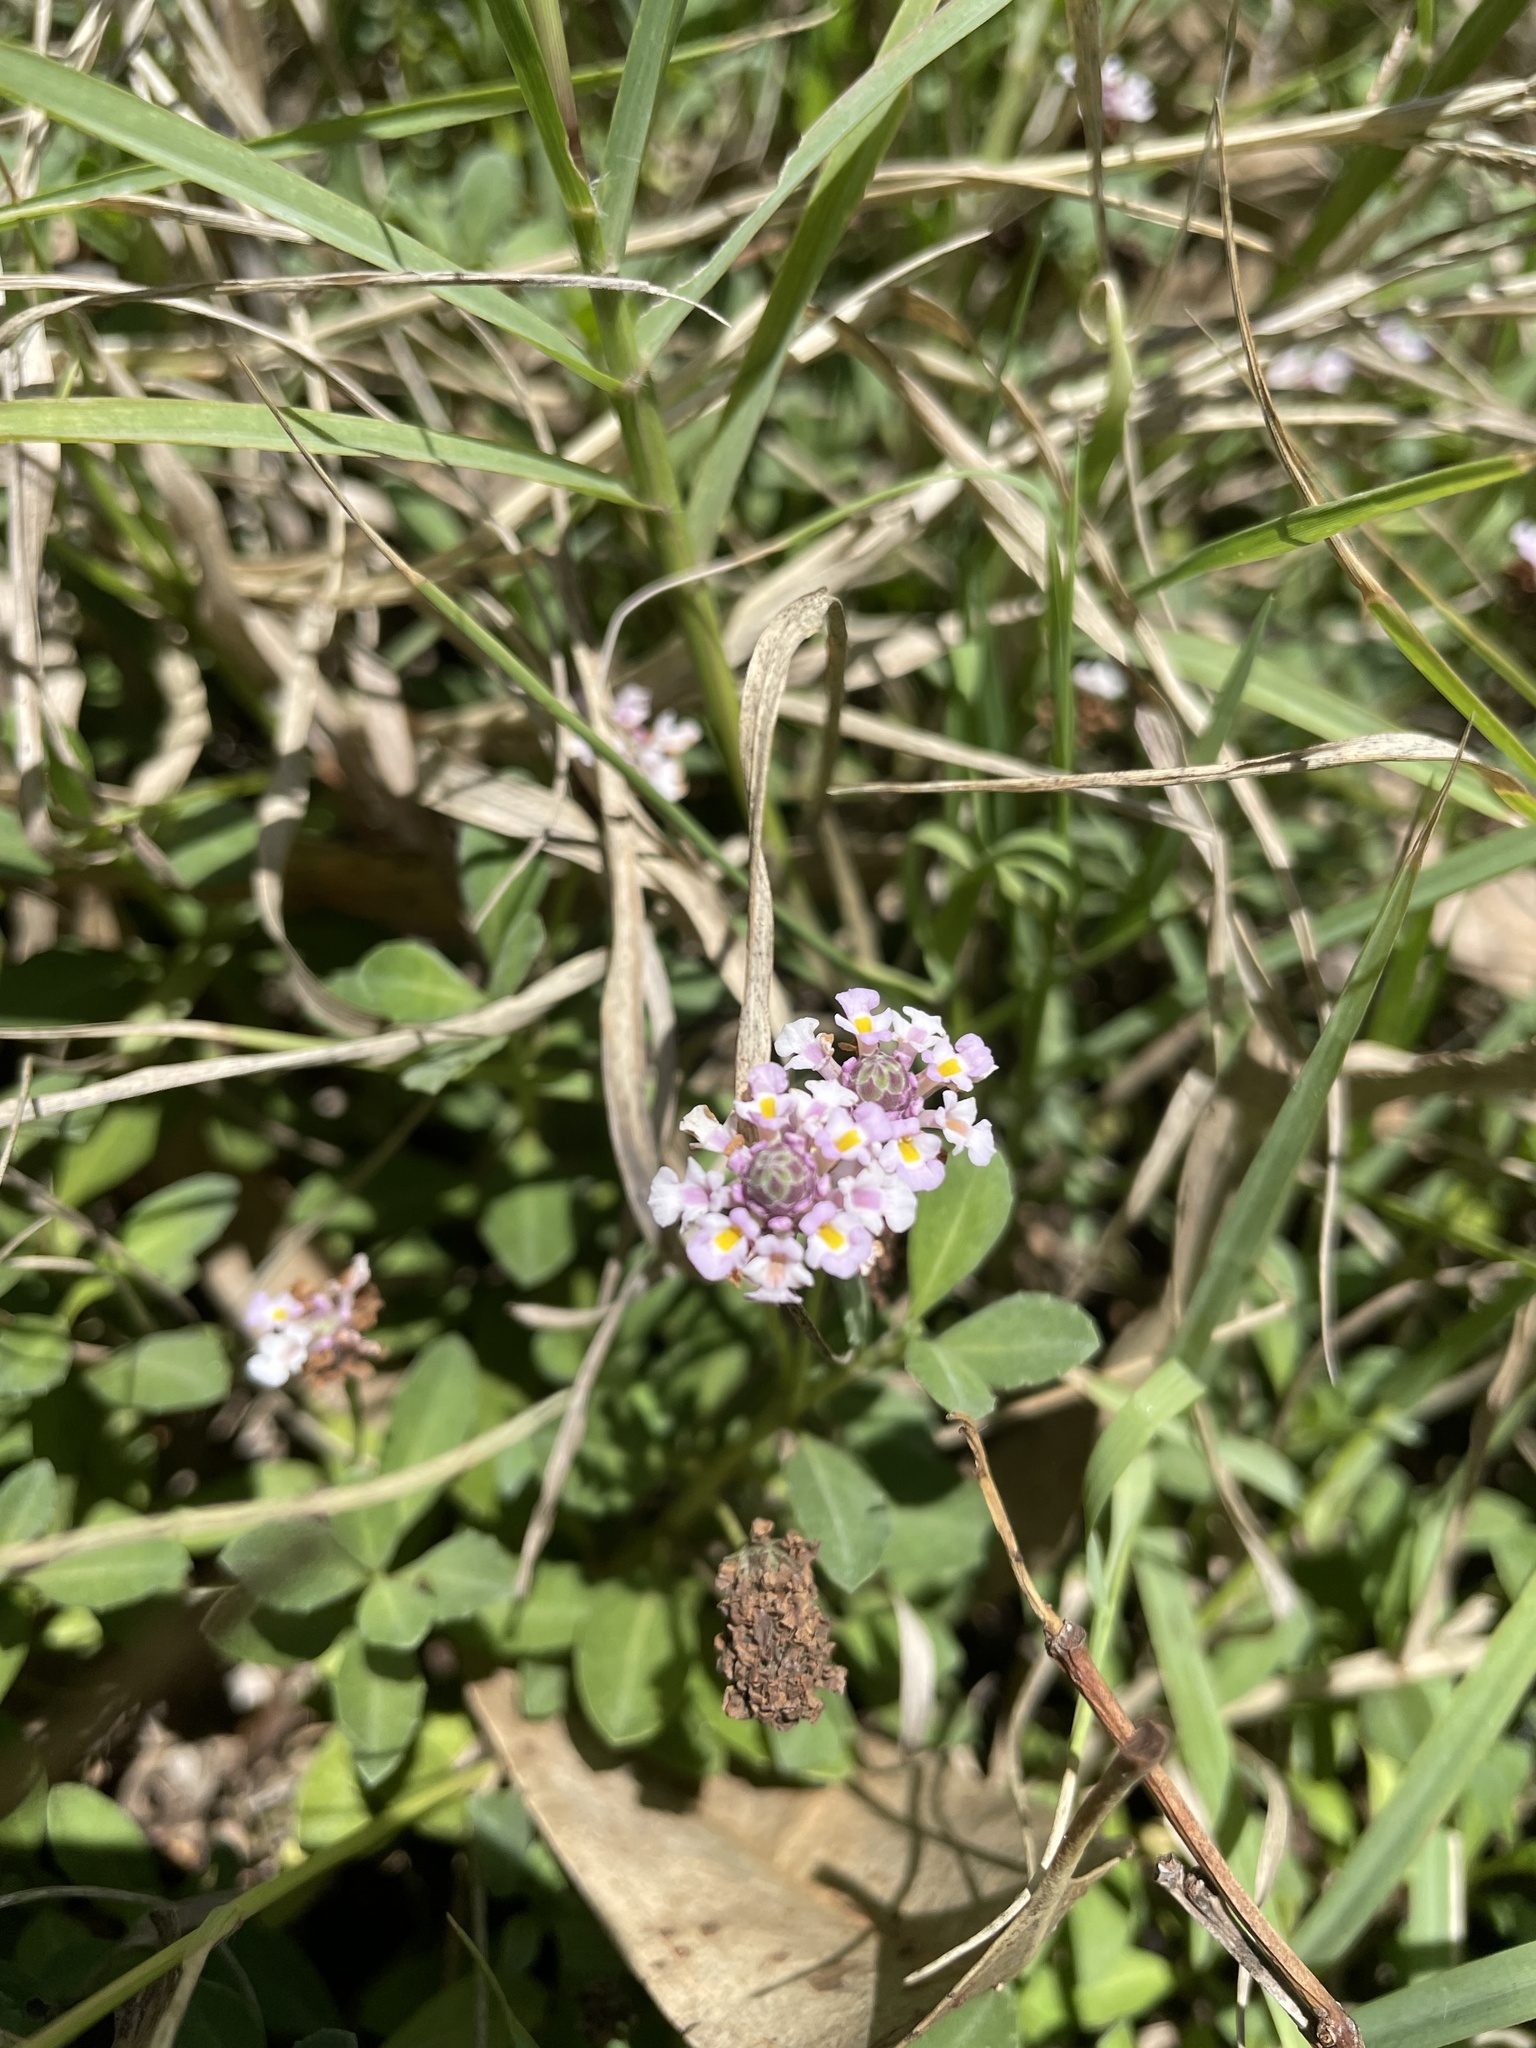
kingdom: Plantae
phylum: Tracheophyta
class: Magnoliopsida
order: Lamiales
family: Verbenaceae
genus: Phyla
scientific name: Phyla nodiflora
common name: Frogfruit
